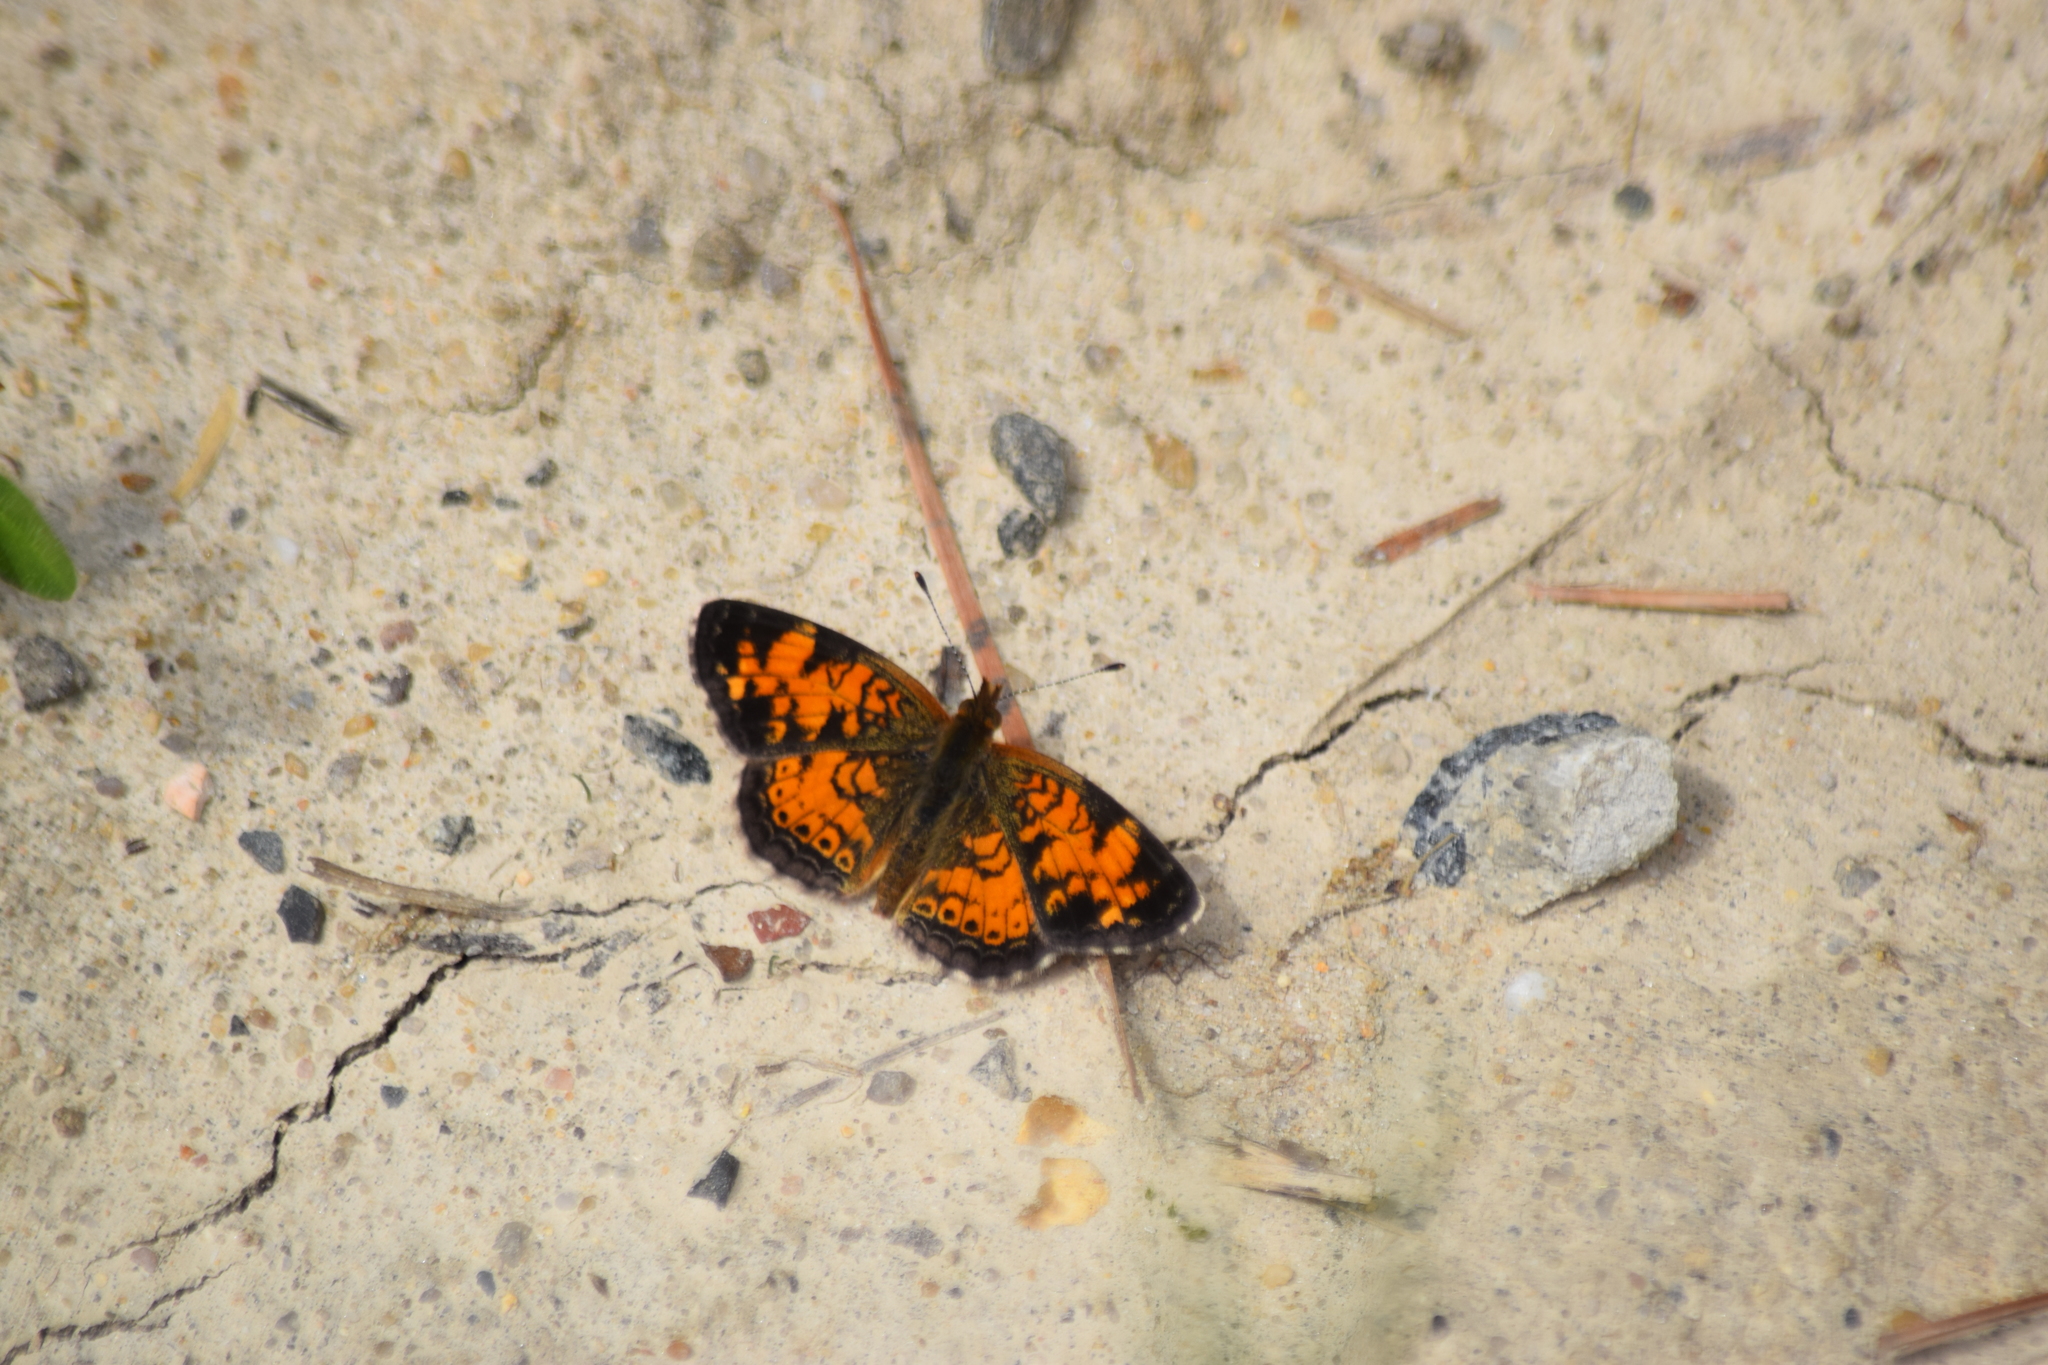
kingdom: Animalia
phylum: Arthropoda
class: Insecta
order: Lepidoptera
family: Nymphalidae
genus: Phyciodes
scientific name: Phyciodes tharos
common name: Pearl crescent
